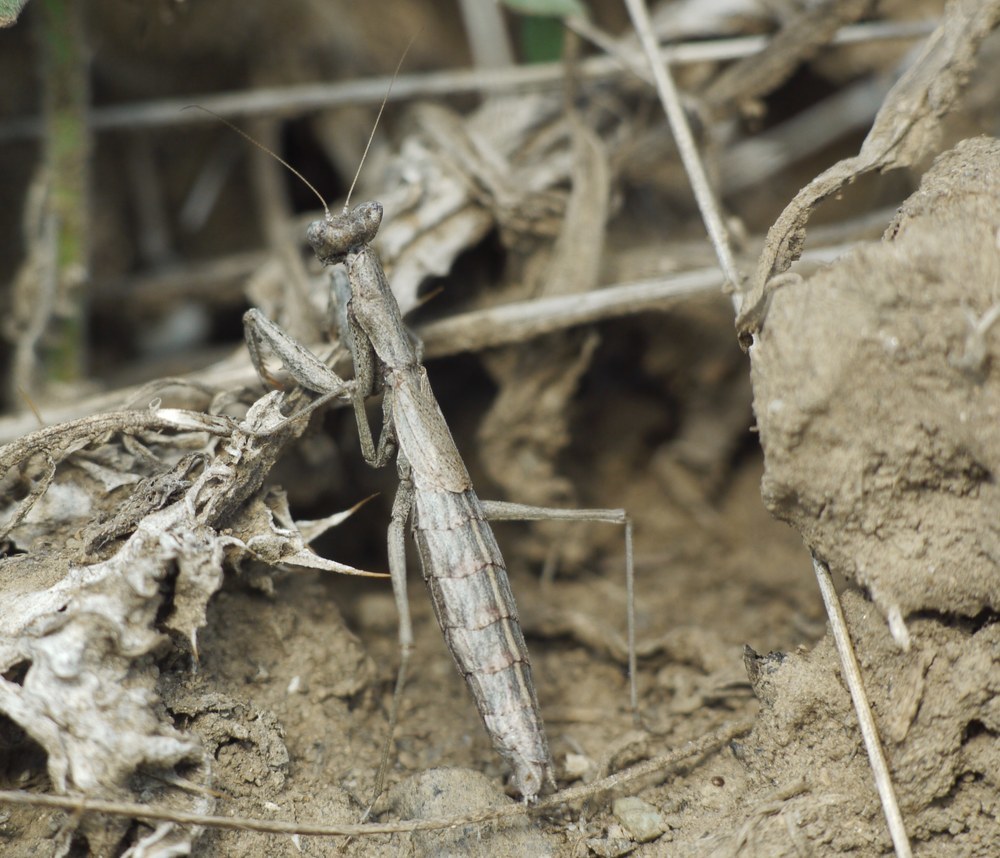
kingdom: Animalia
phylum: Arthropoda
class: Insecta
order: Mantodea
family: Amelidae
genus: Ameles
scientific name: Ameles heldreichi
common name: Heldreich's dwarf mantis
